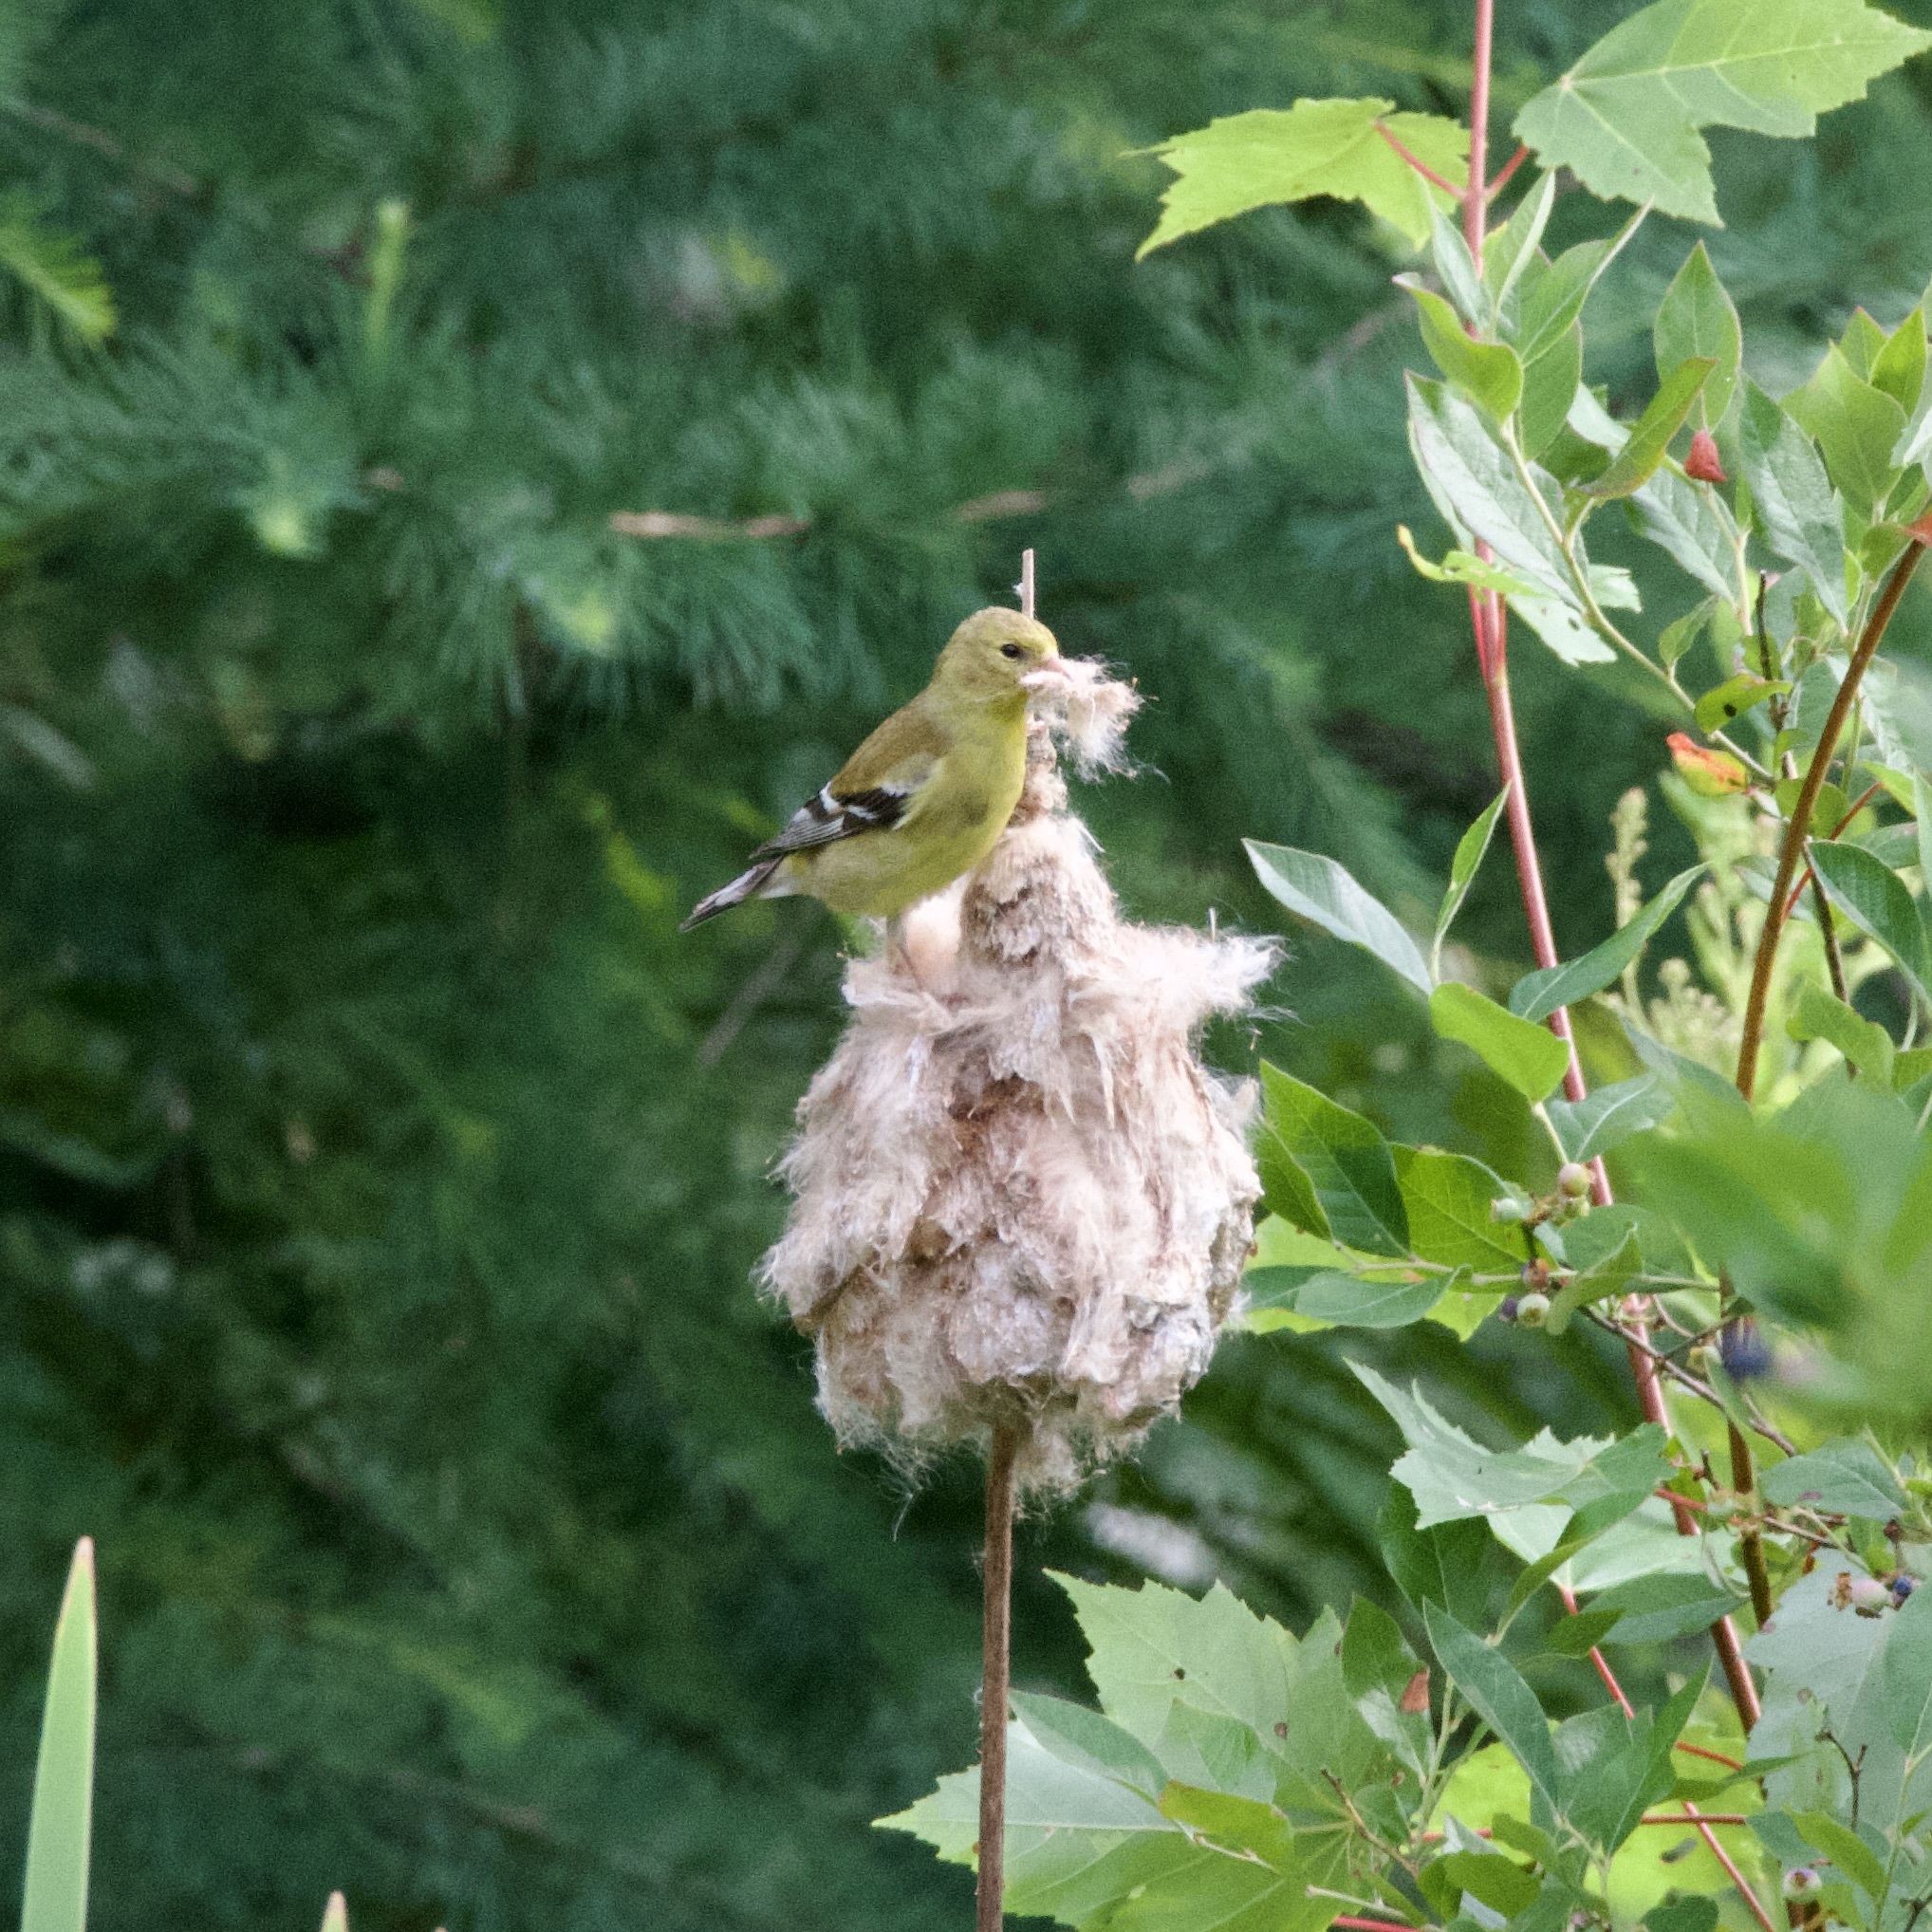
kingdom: Animalia
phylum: Chordata
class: Aves
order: Passeriformes
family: Fringillidae
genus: Spinus
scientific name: Spinus tristis
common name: American goldfinch
